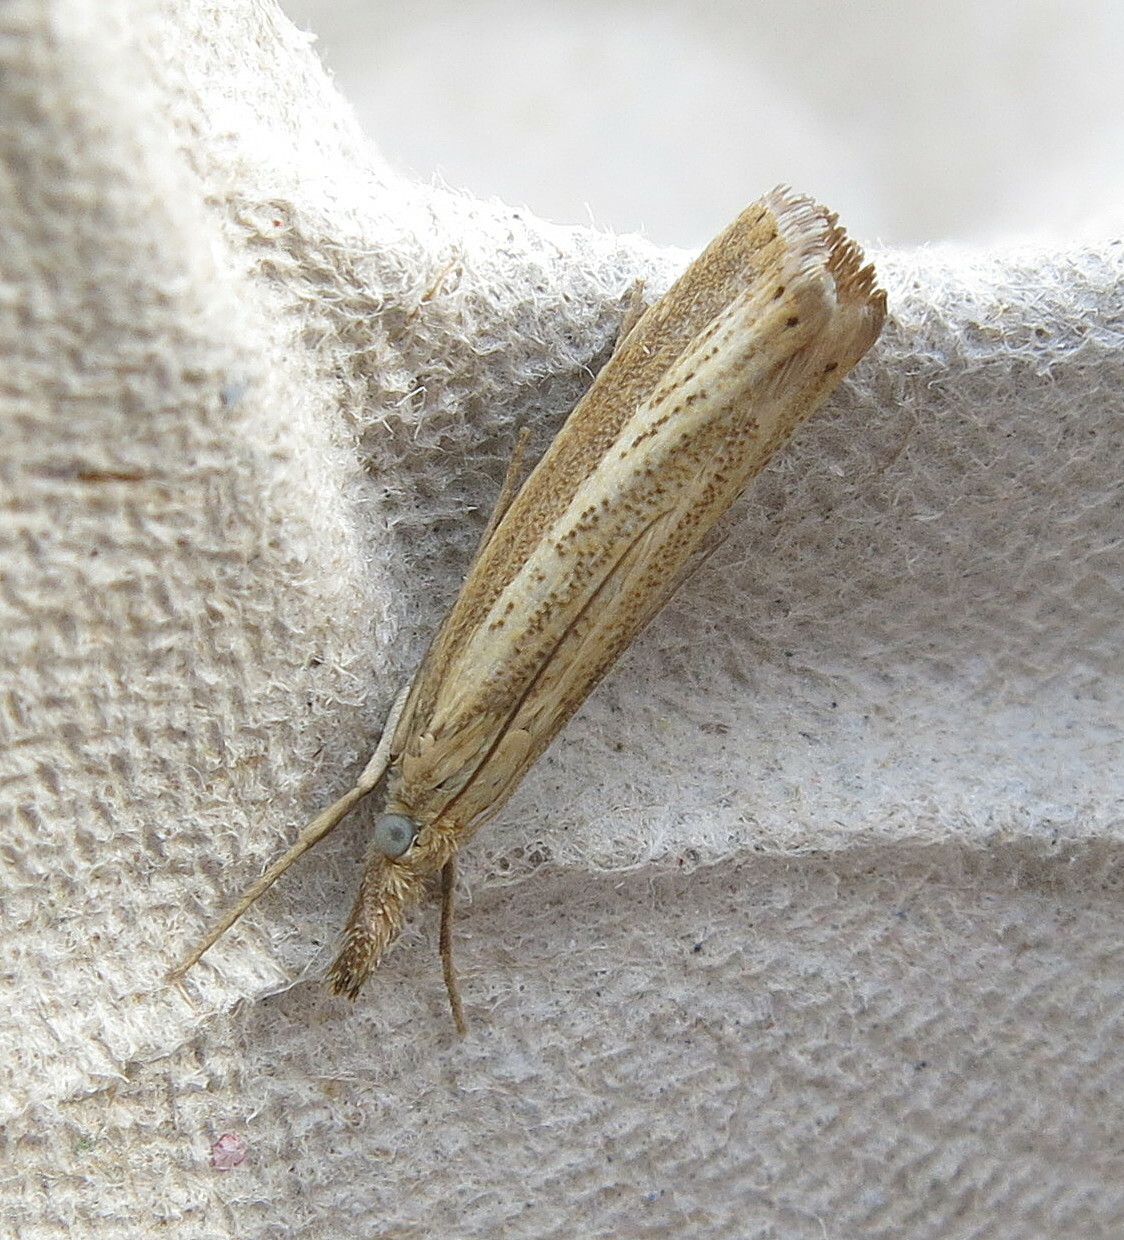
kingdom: Animalia
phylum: Arthropoda
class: Insecta
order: Lepidoptera
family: Crambidae
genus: Agriphila
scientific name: Agriphila straminella
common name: Straw grass-veneer
